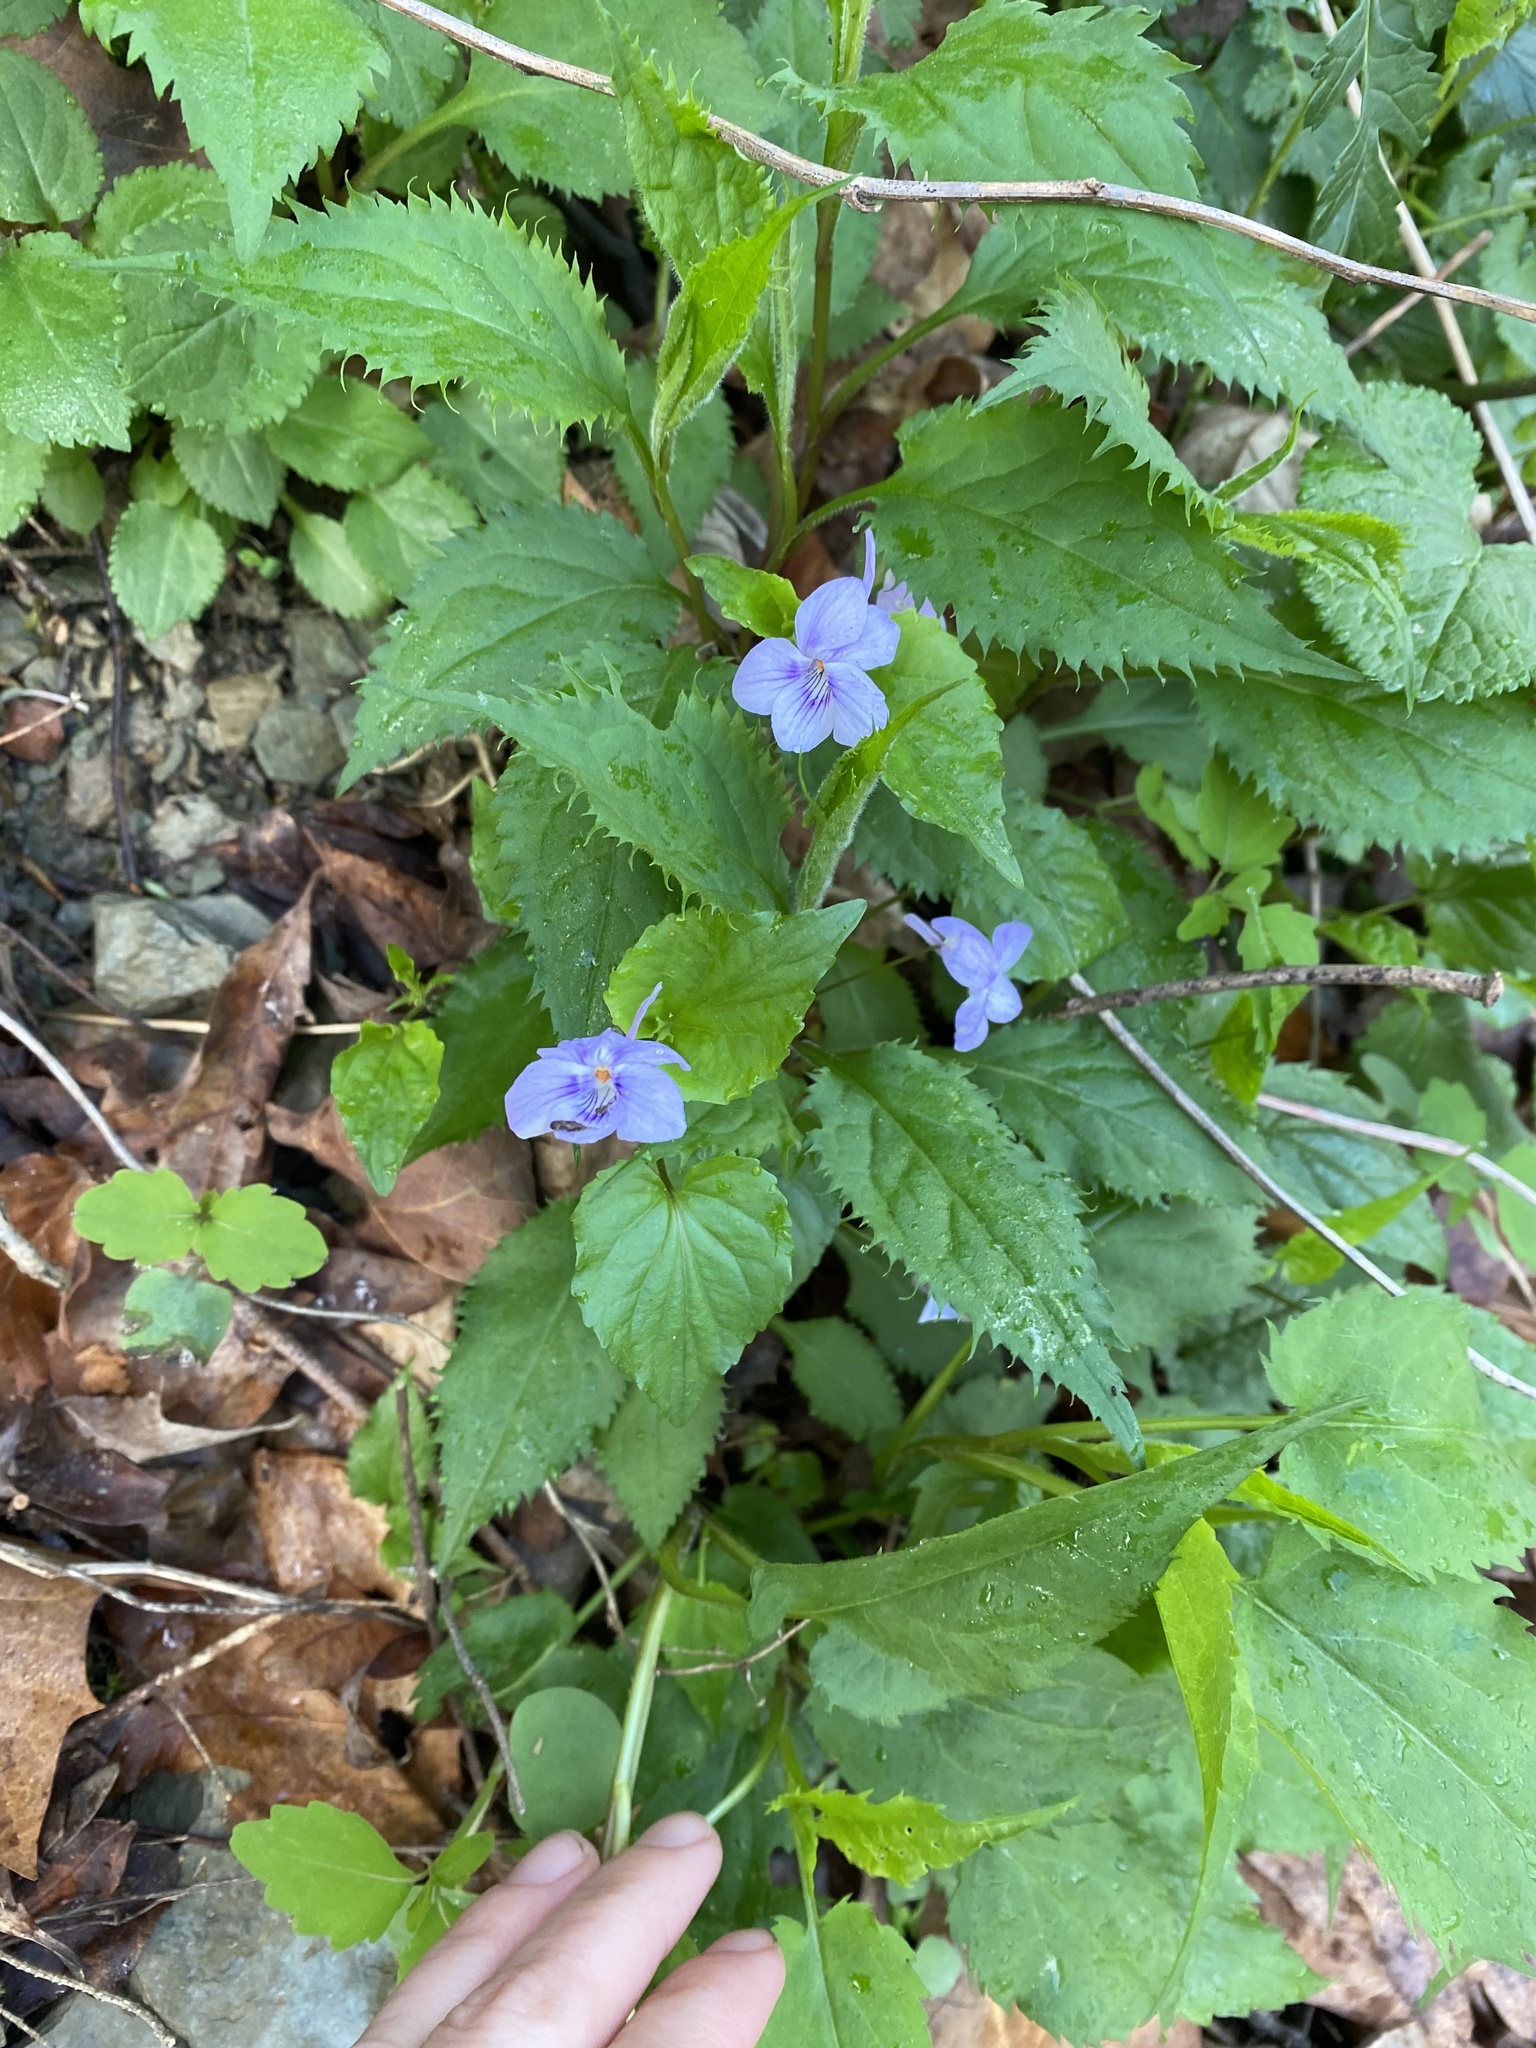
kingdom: Plantae
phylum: Tracheophyta
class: Magnoliopsida
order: Malpighiales
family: Violaceae
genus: Viola
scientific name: Viola rostrata
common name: Long-spur violet
